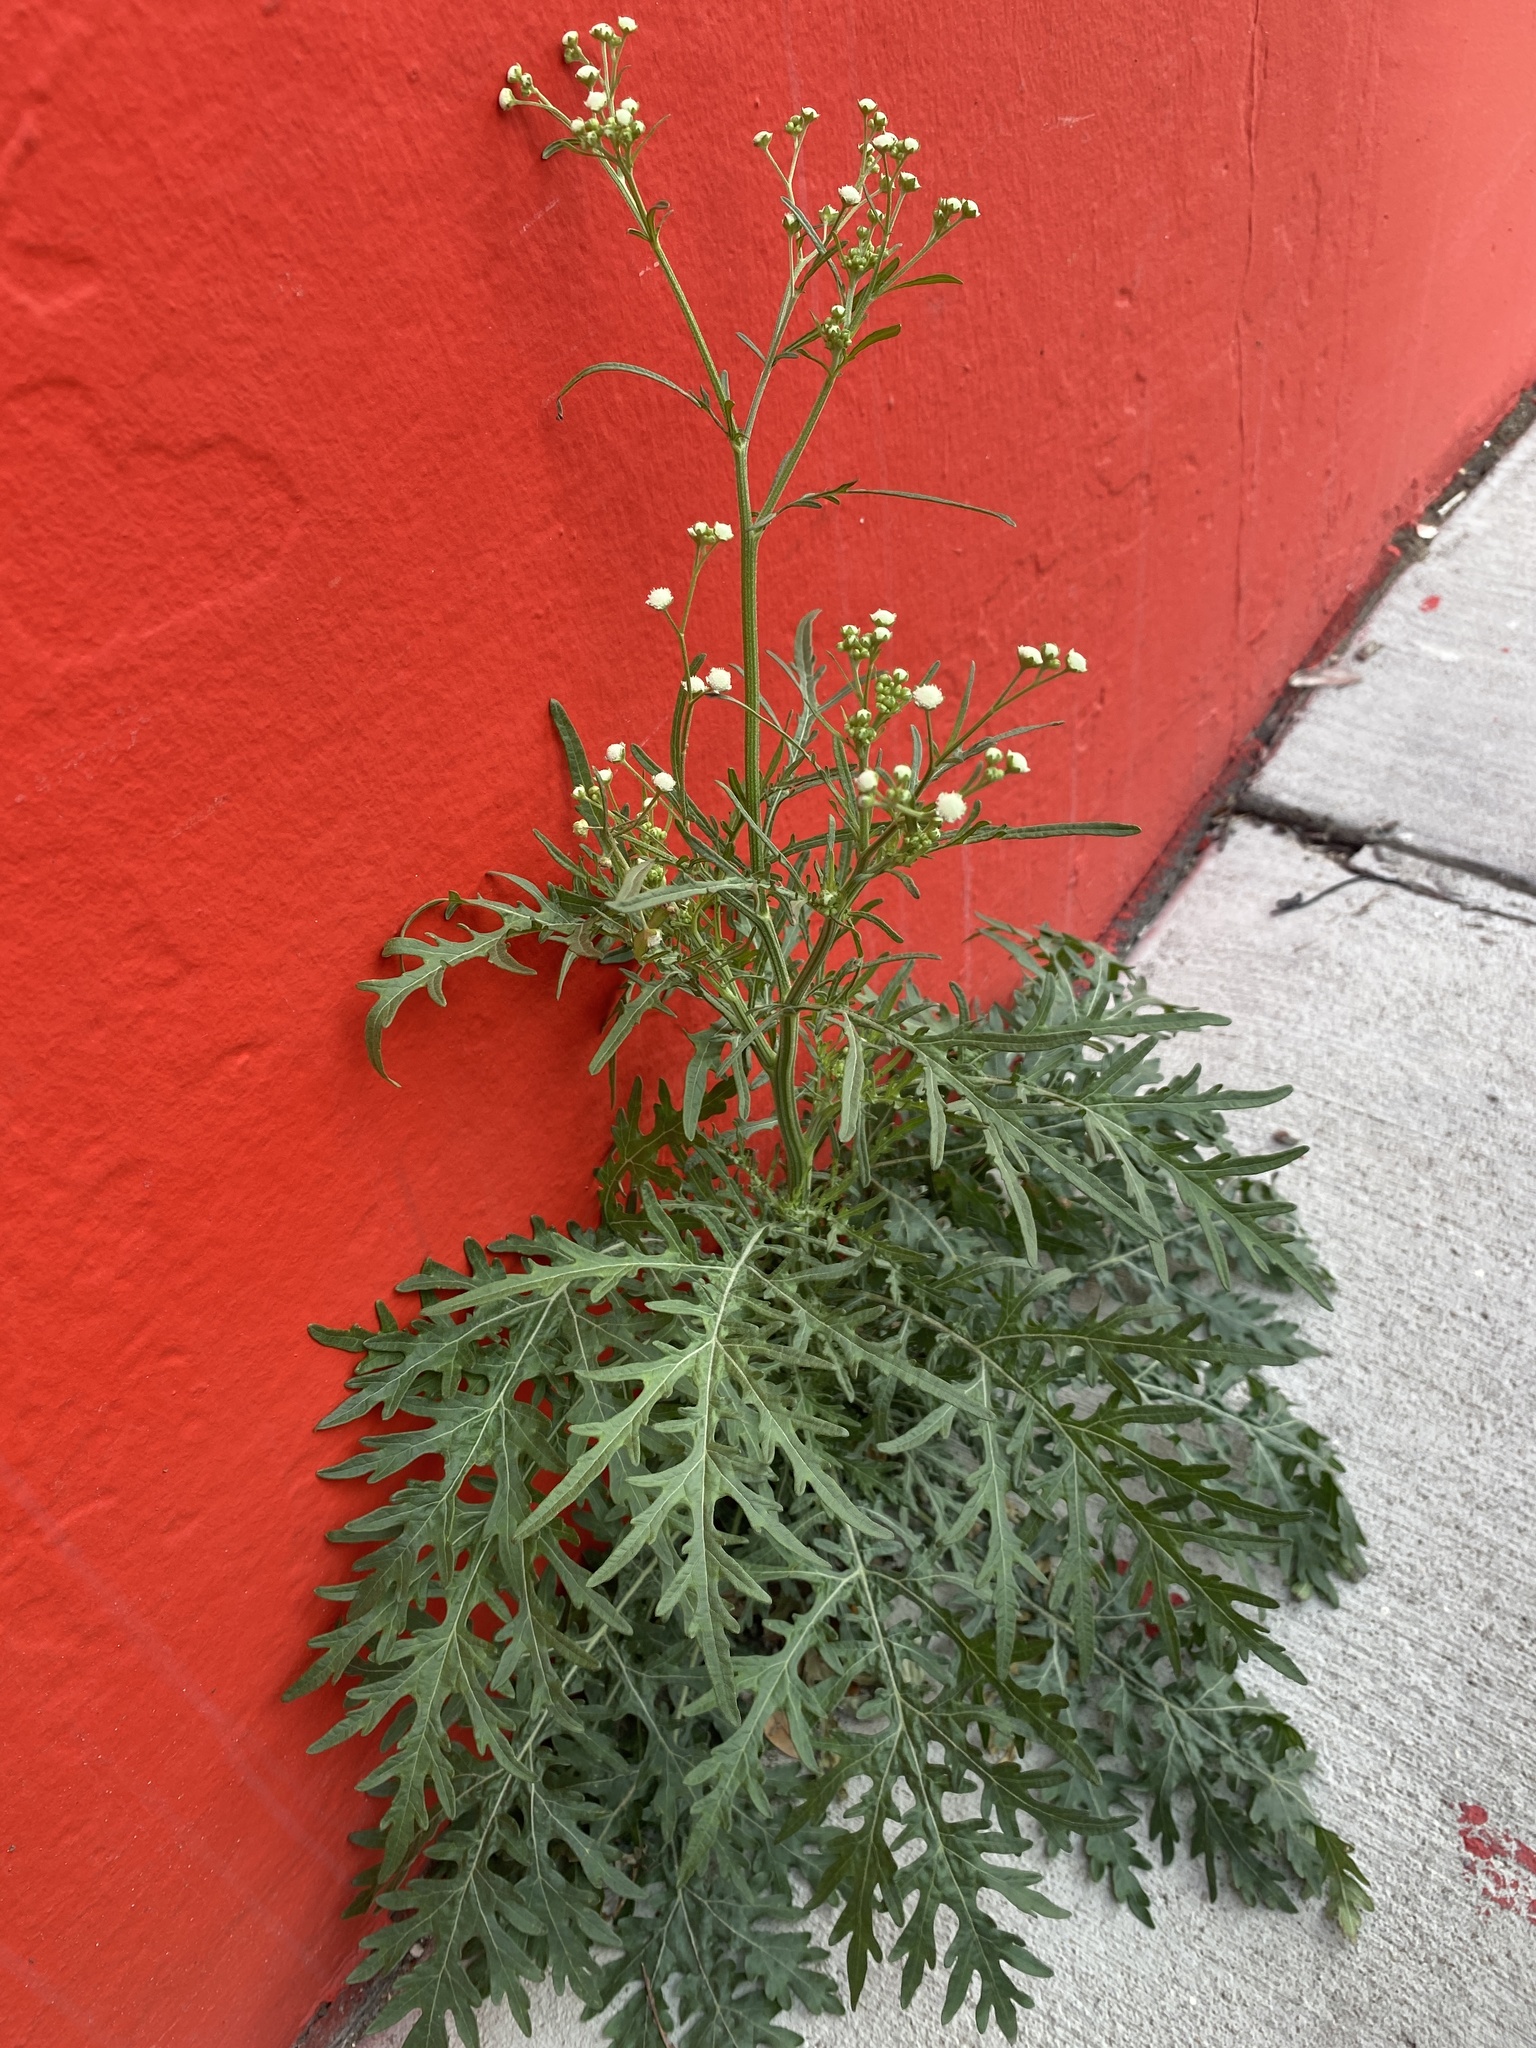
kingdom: Plantae
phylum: Tracheophyta
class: Magnoliopsida
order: Asterales
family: Asteraceae
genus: Parthenium
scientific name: Parthenium hysterophorus
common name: Santa maria feverfew
